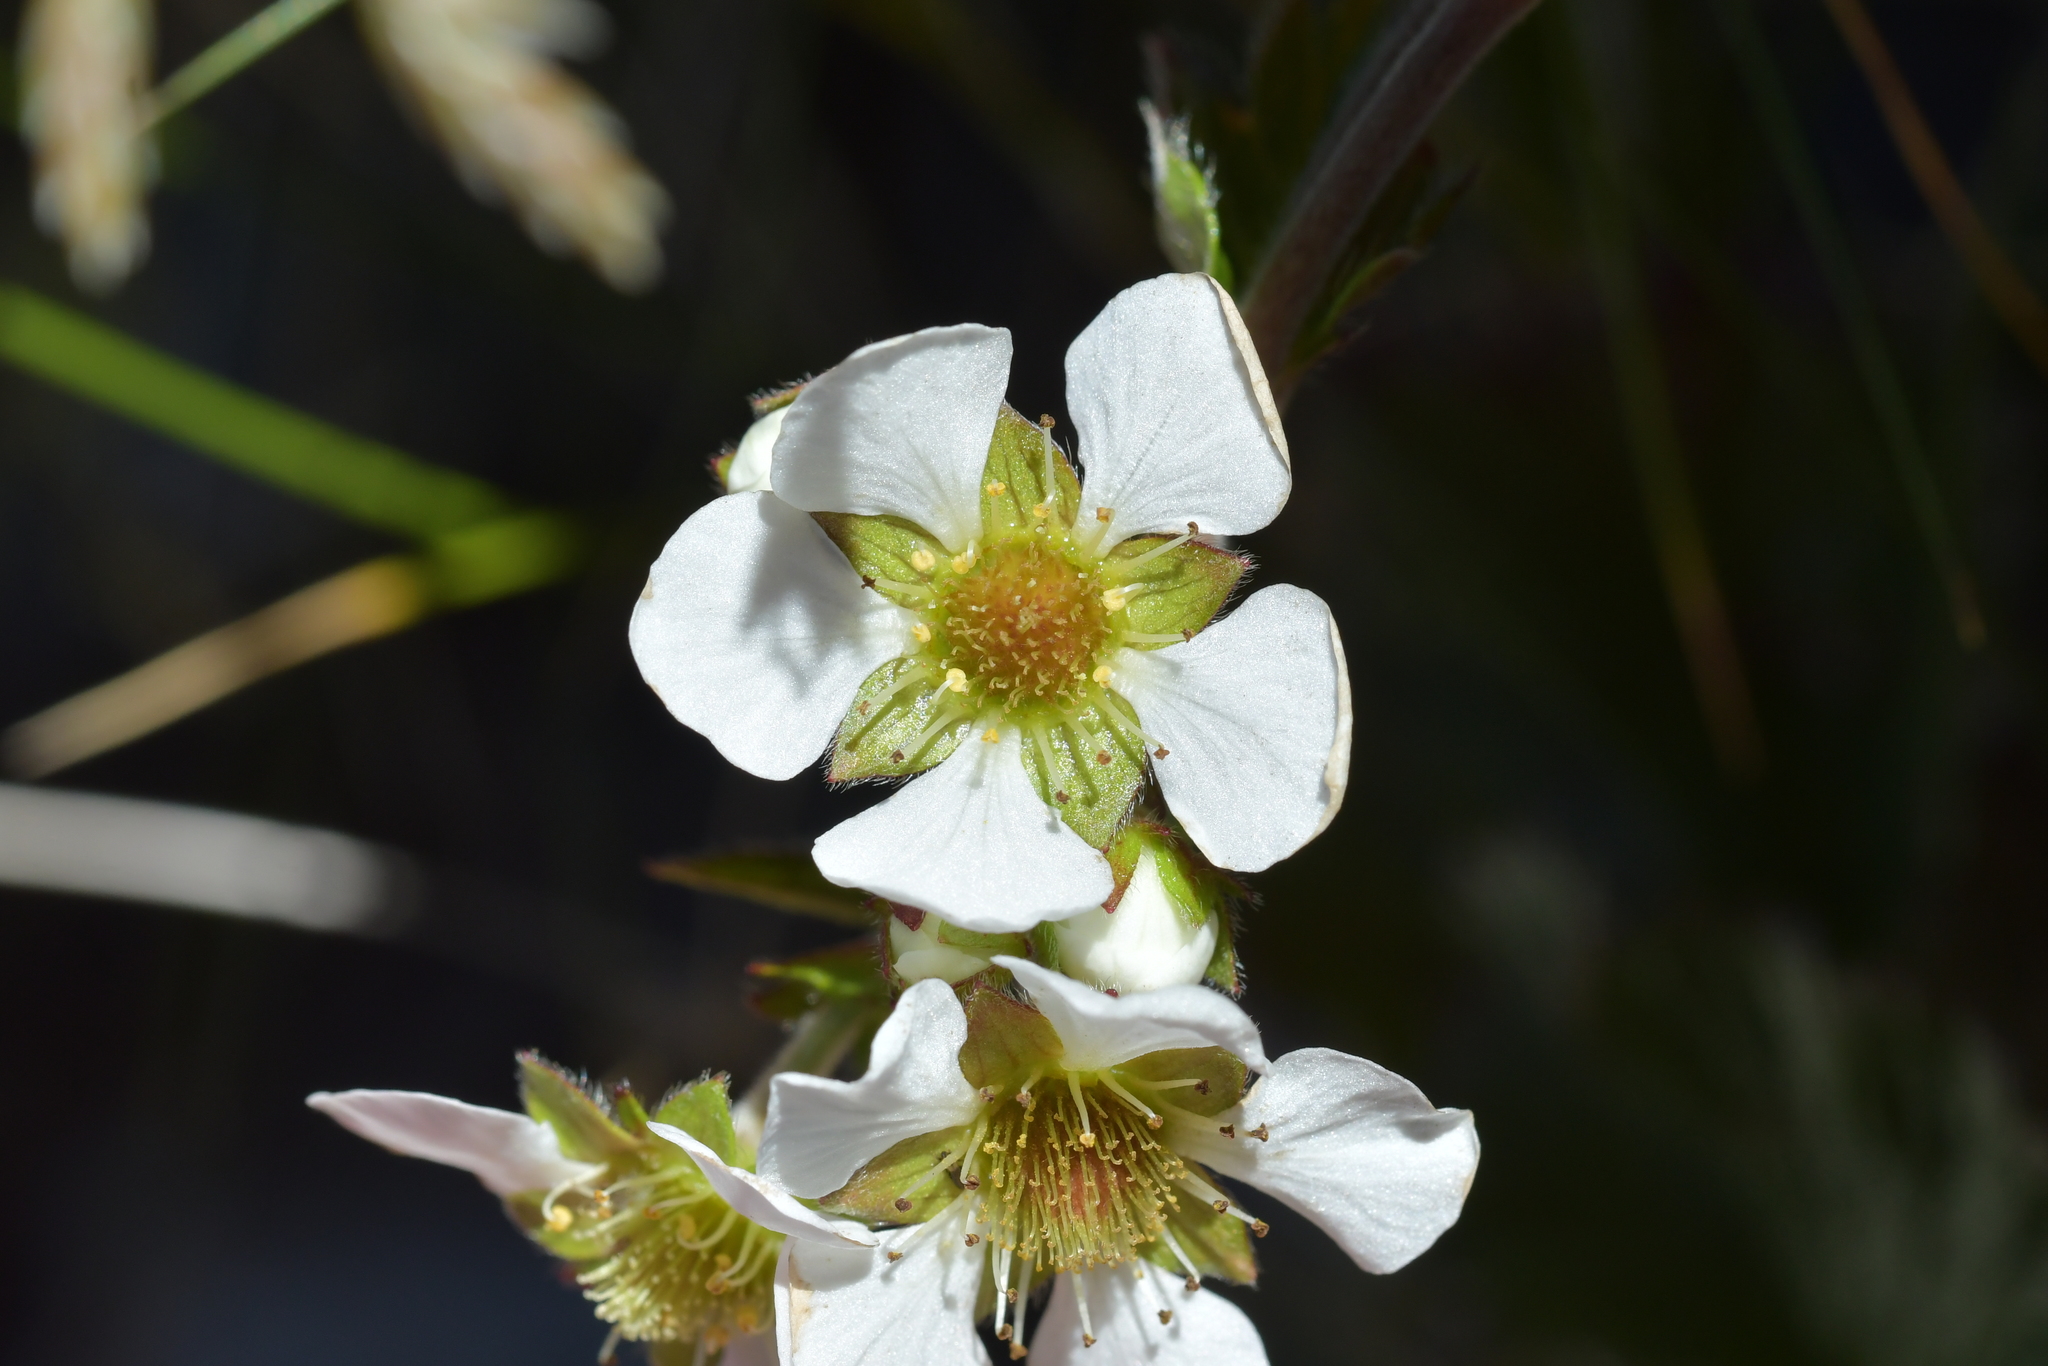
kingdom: Plantae
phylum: Tracheophyta
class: Magnoliopsida
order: Rosales
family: Rosaceae
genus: Geum
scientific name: Geum cockaynei
